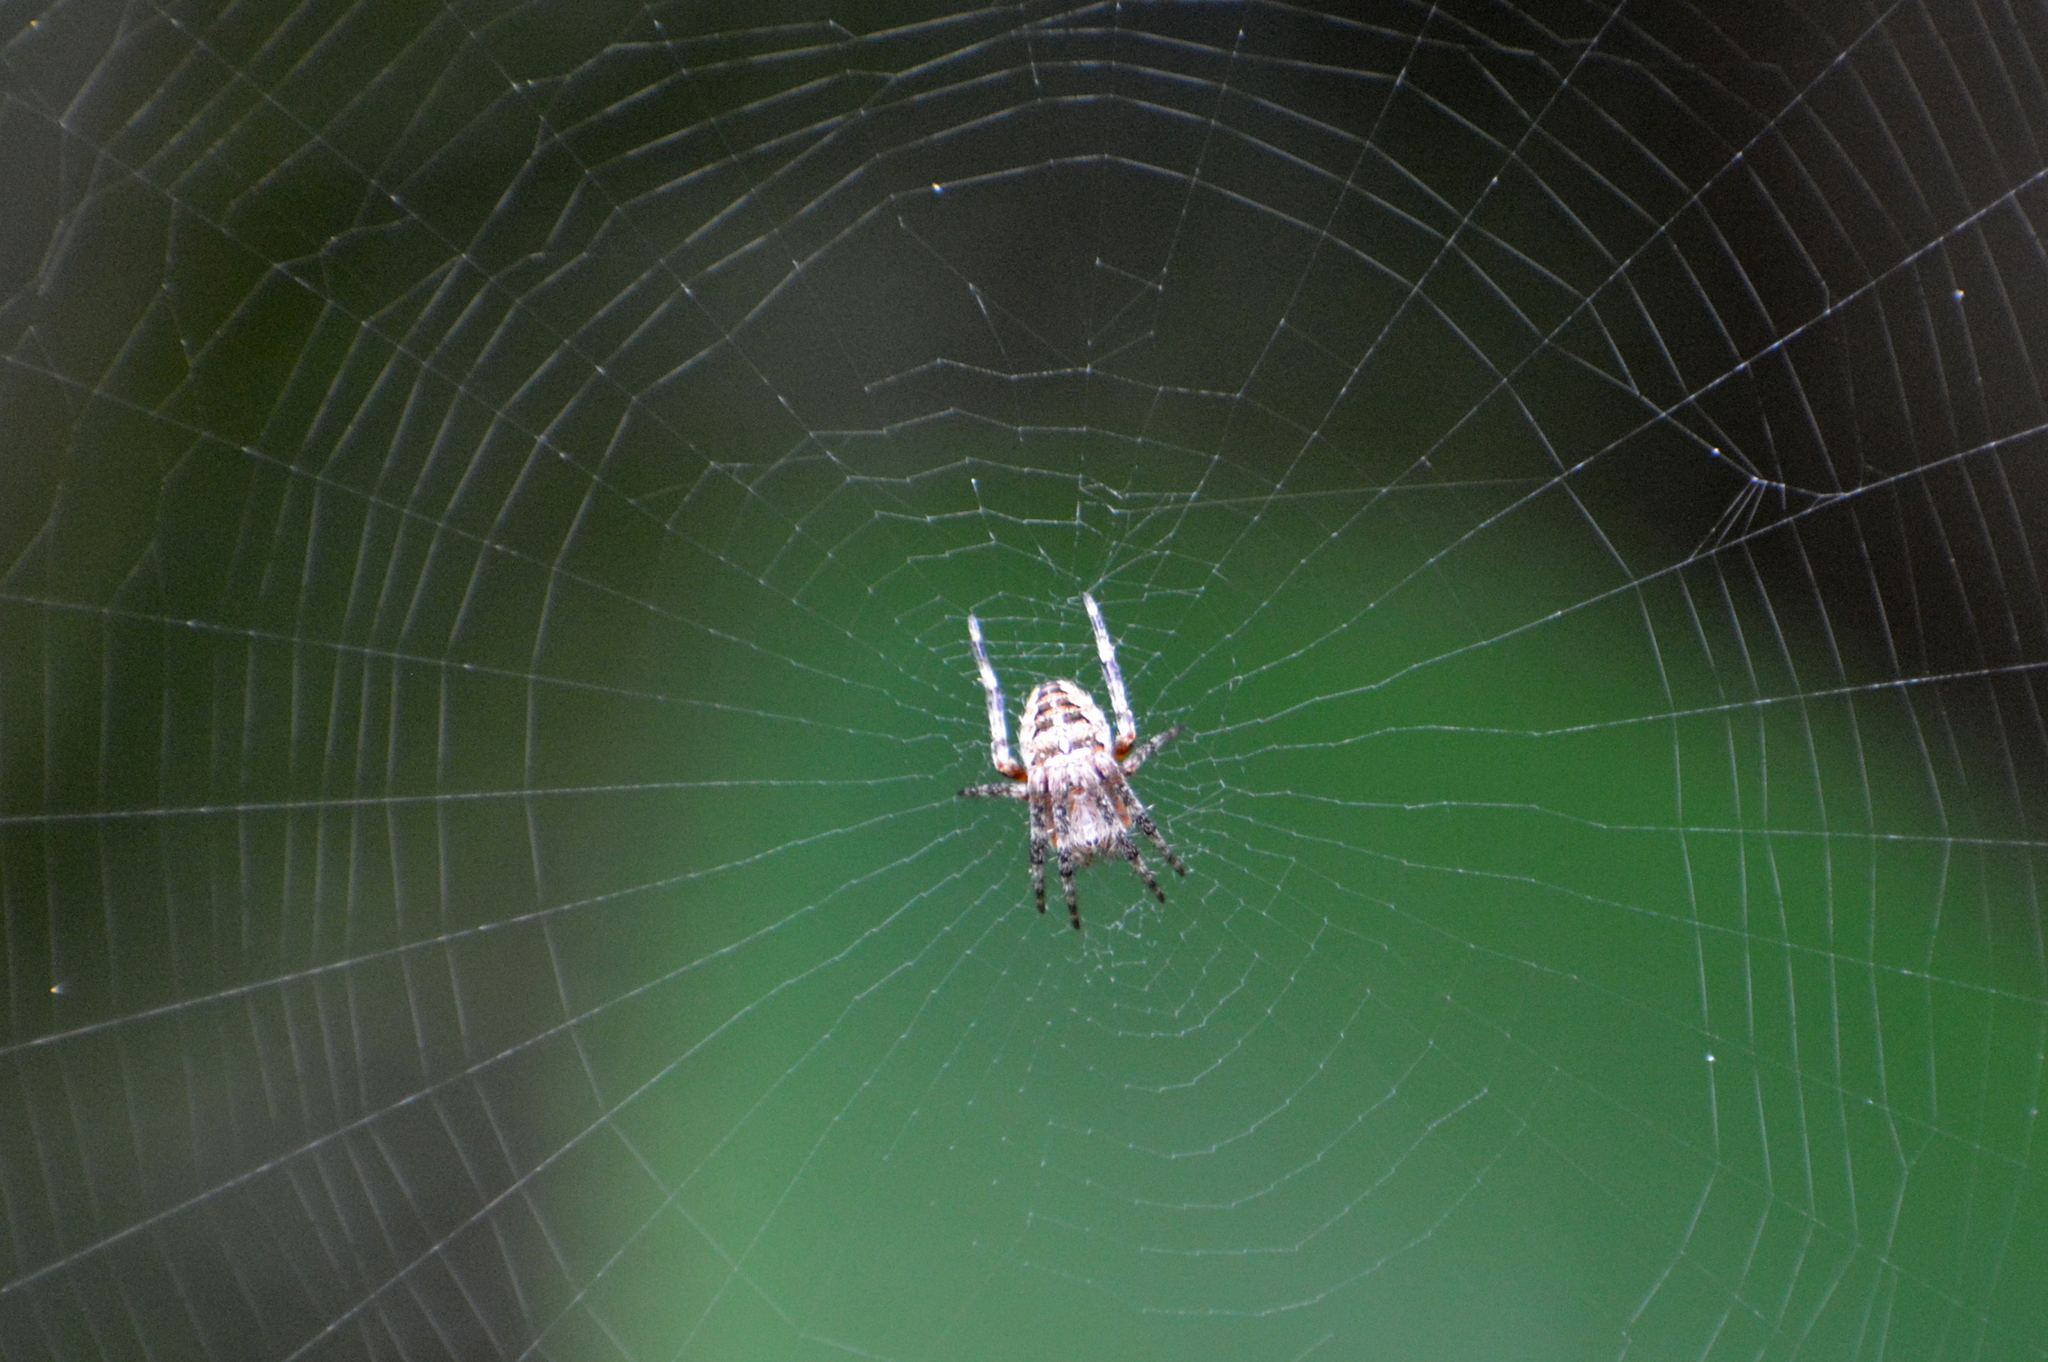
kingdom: Animalia
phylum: Arthropoda
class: Arachnida
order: Araneae
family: Araneidae
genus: Araneus
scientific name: Araneus diadematus
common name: Cross orbweaver
